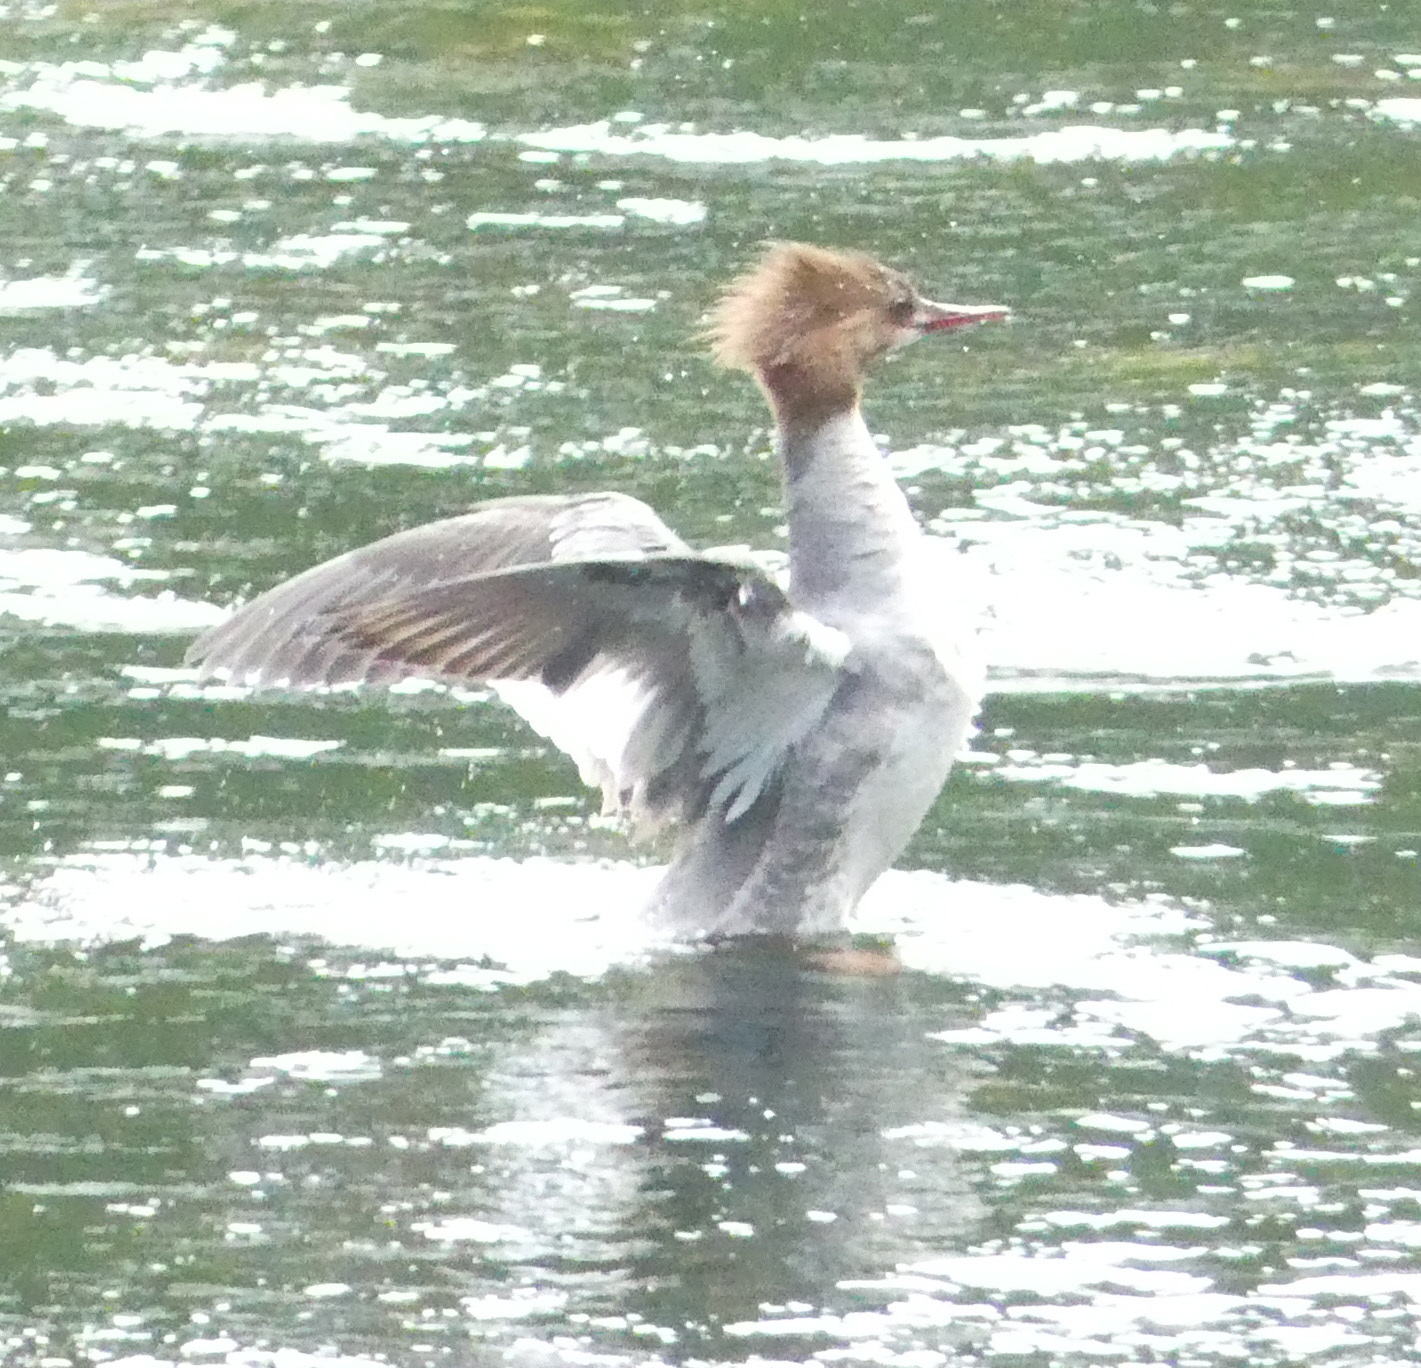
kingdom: Animalia
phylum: Chordata
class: Aves
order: Anseriformes
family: Anatidae
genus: Mergus
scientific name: Mergus merganser
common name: Common merganser
